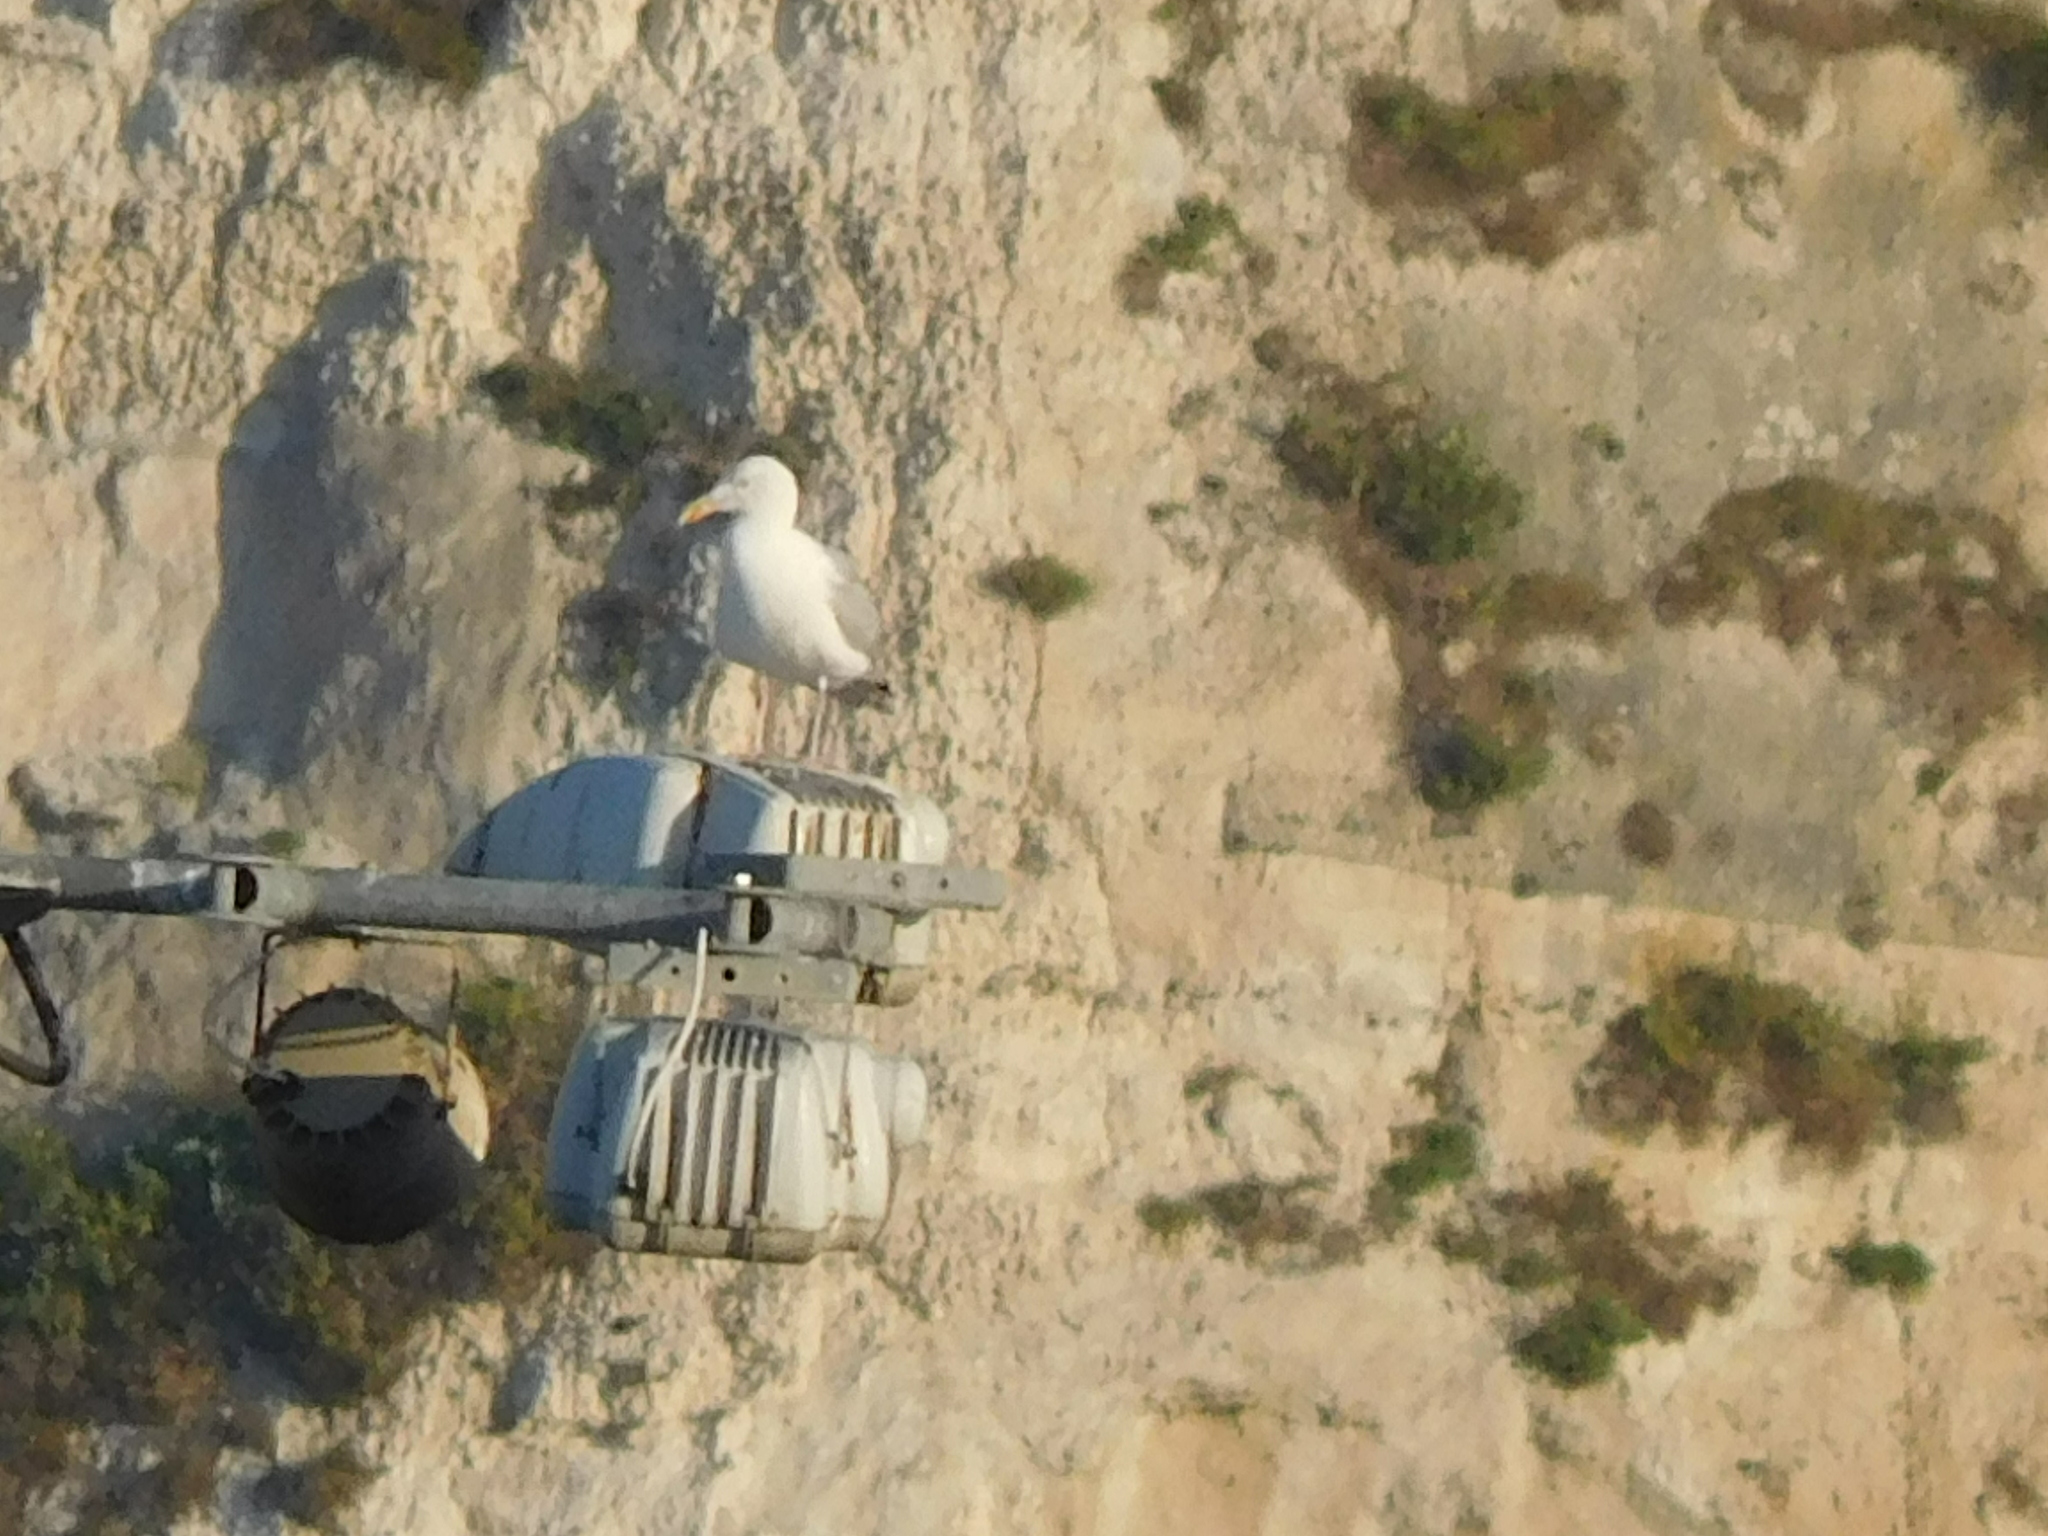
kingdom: Animalia
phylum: Chordata
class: Aves
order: Charadriiformes
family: Laridae
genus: Larus
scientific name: Larus argentatus
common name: Herring gull
